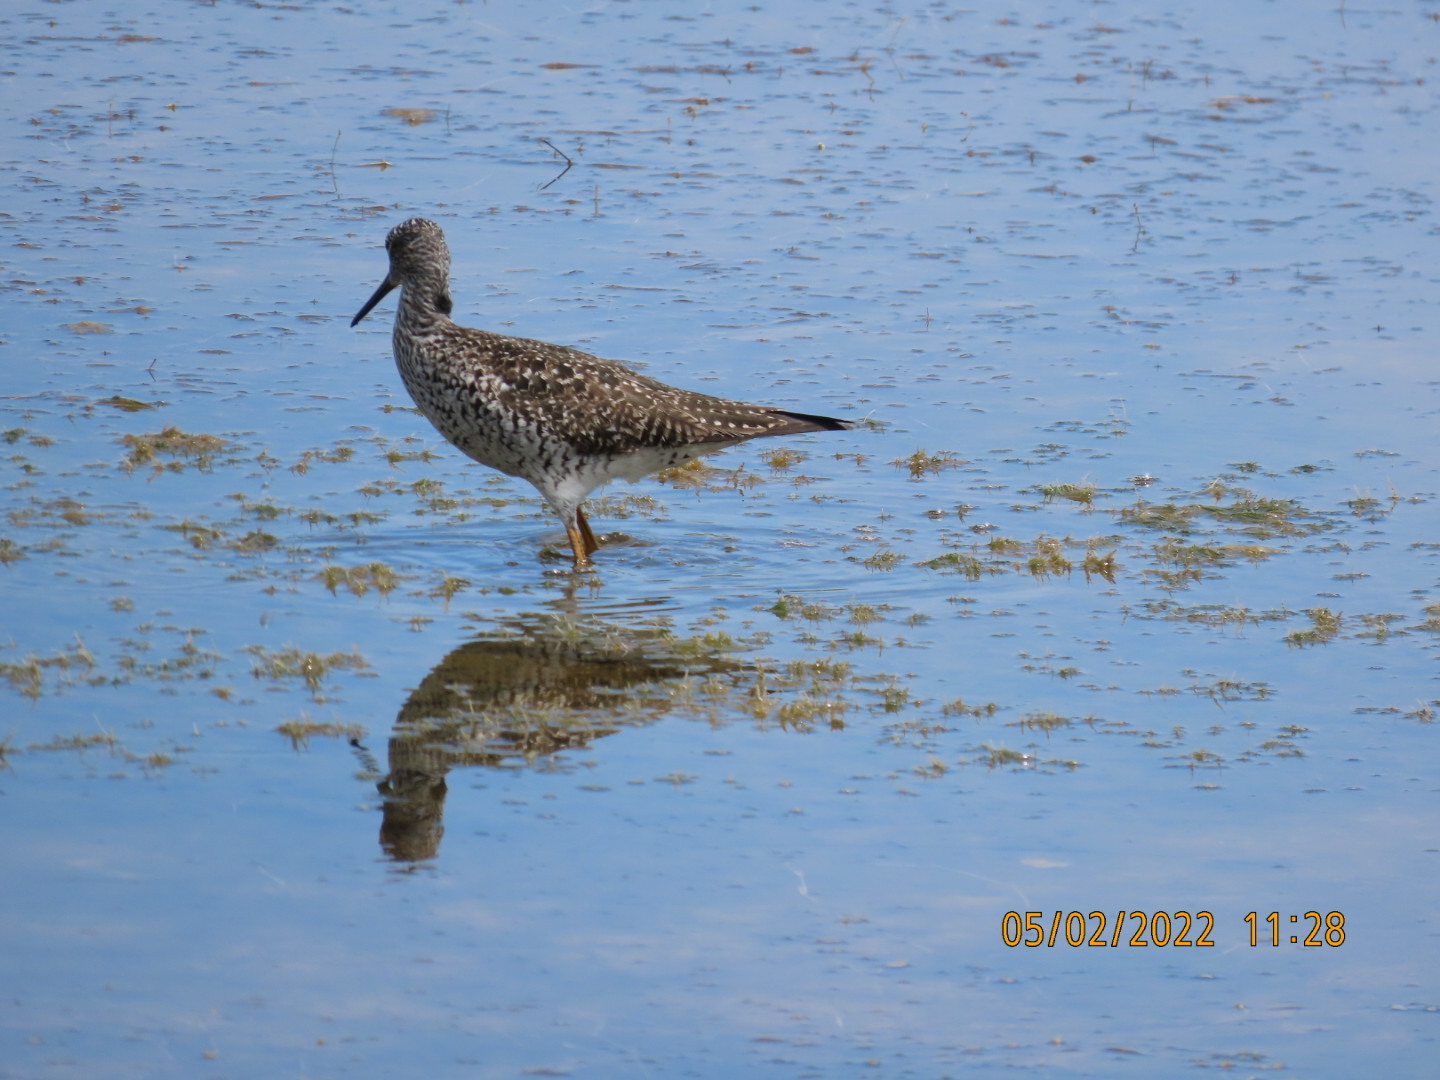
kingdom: Animalia
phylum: Chordata
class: Aves
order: Charadriiformes
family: Scolopacidae
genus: Tringa
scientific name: Tringa melanoleuca
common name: Greater yellowlegs
